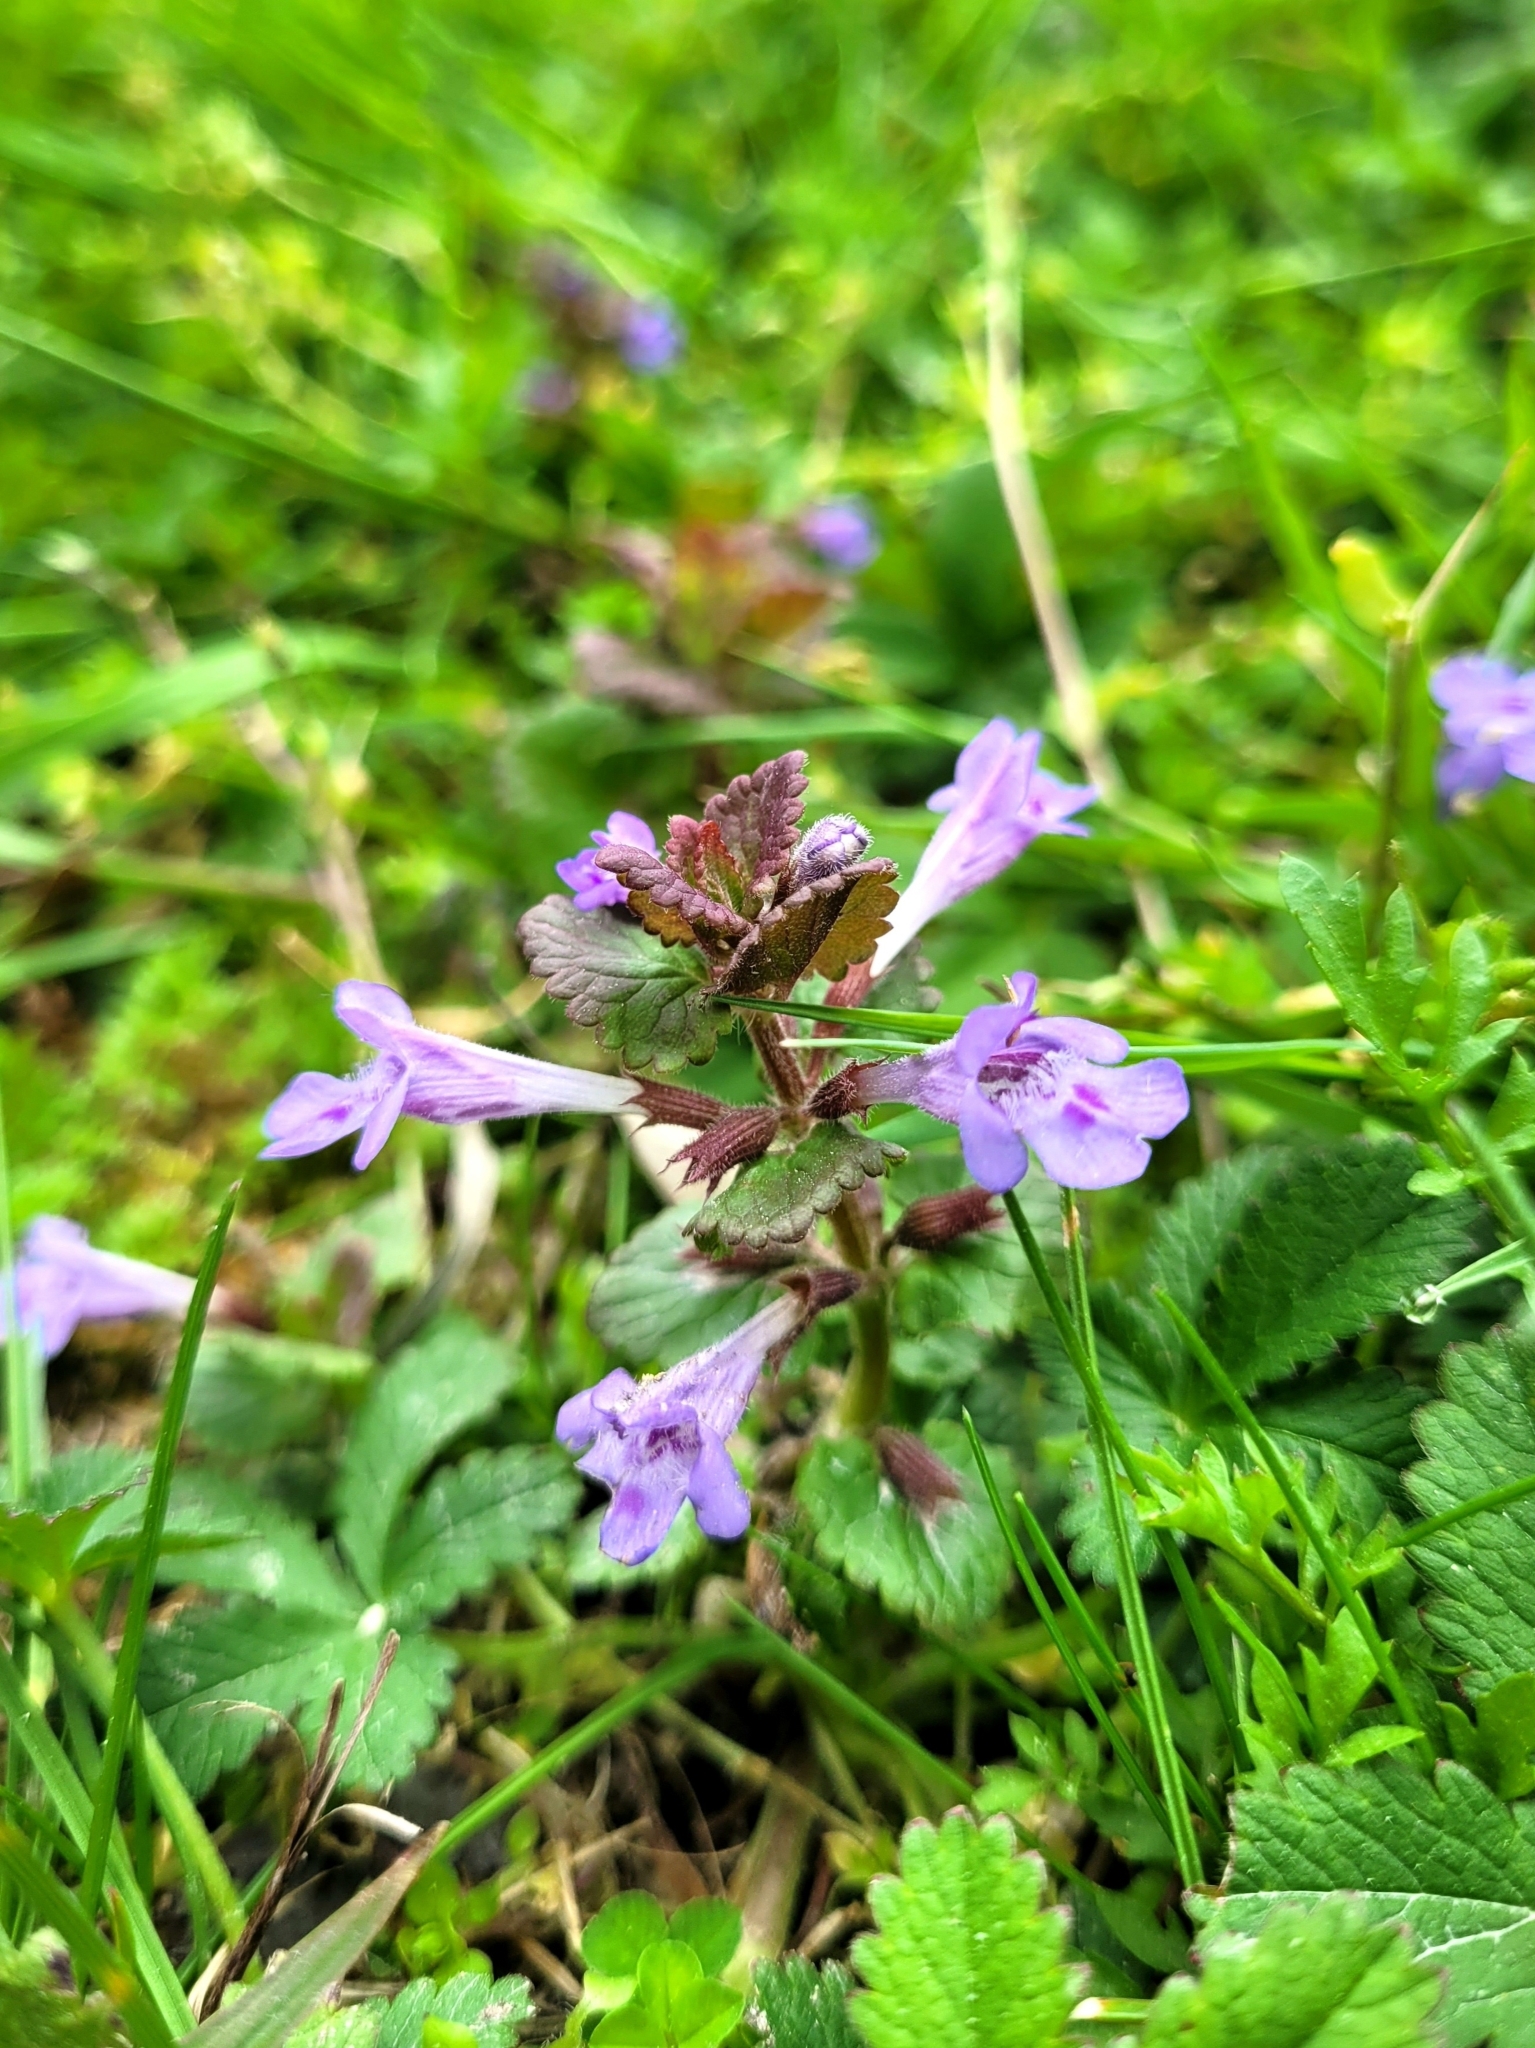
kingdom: Plantae
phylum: Tracheophyta
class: Magnoliopsida
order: Lamiales
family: Lamiaceae
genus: Glechoma
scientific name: Glechoma hederacea
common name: Ground ivy
